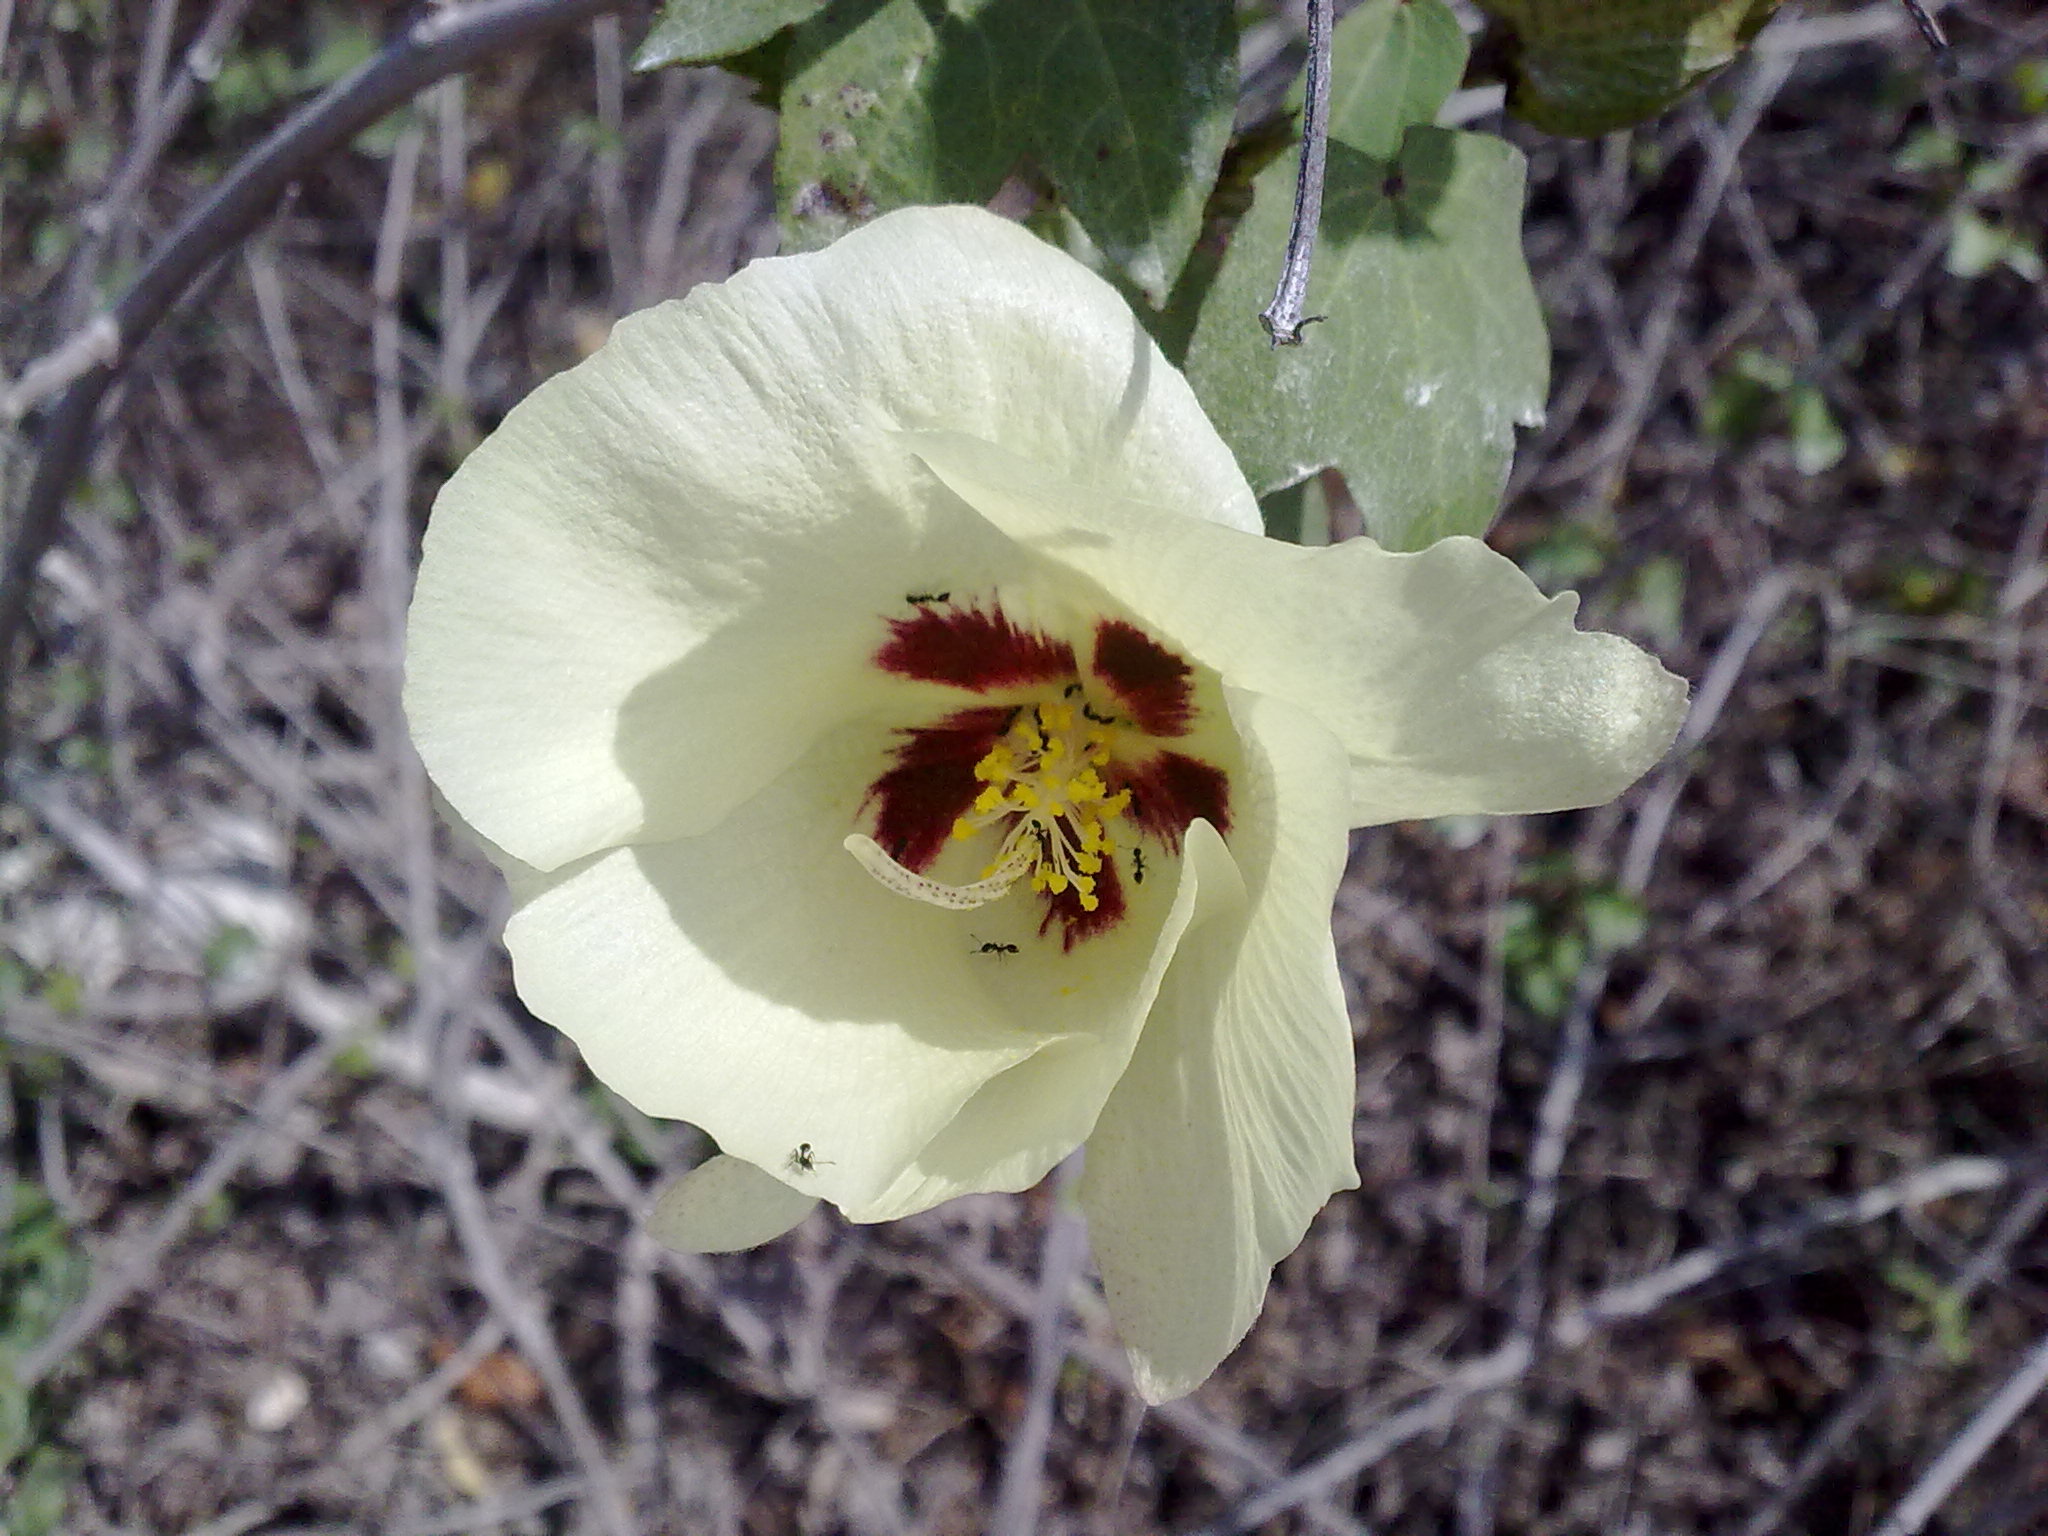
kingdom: Plantae
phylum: Tracheophyta
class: Magnoliopsida
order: Malvales
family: Malvaceae
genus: Gossypium
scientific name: Gossypium hirsutum
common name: Cotton
